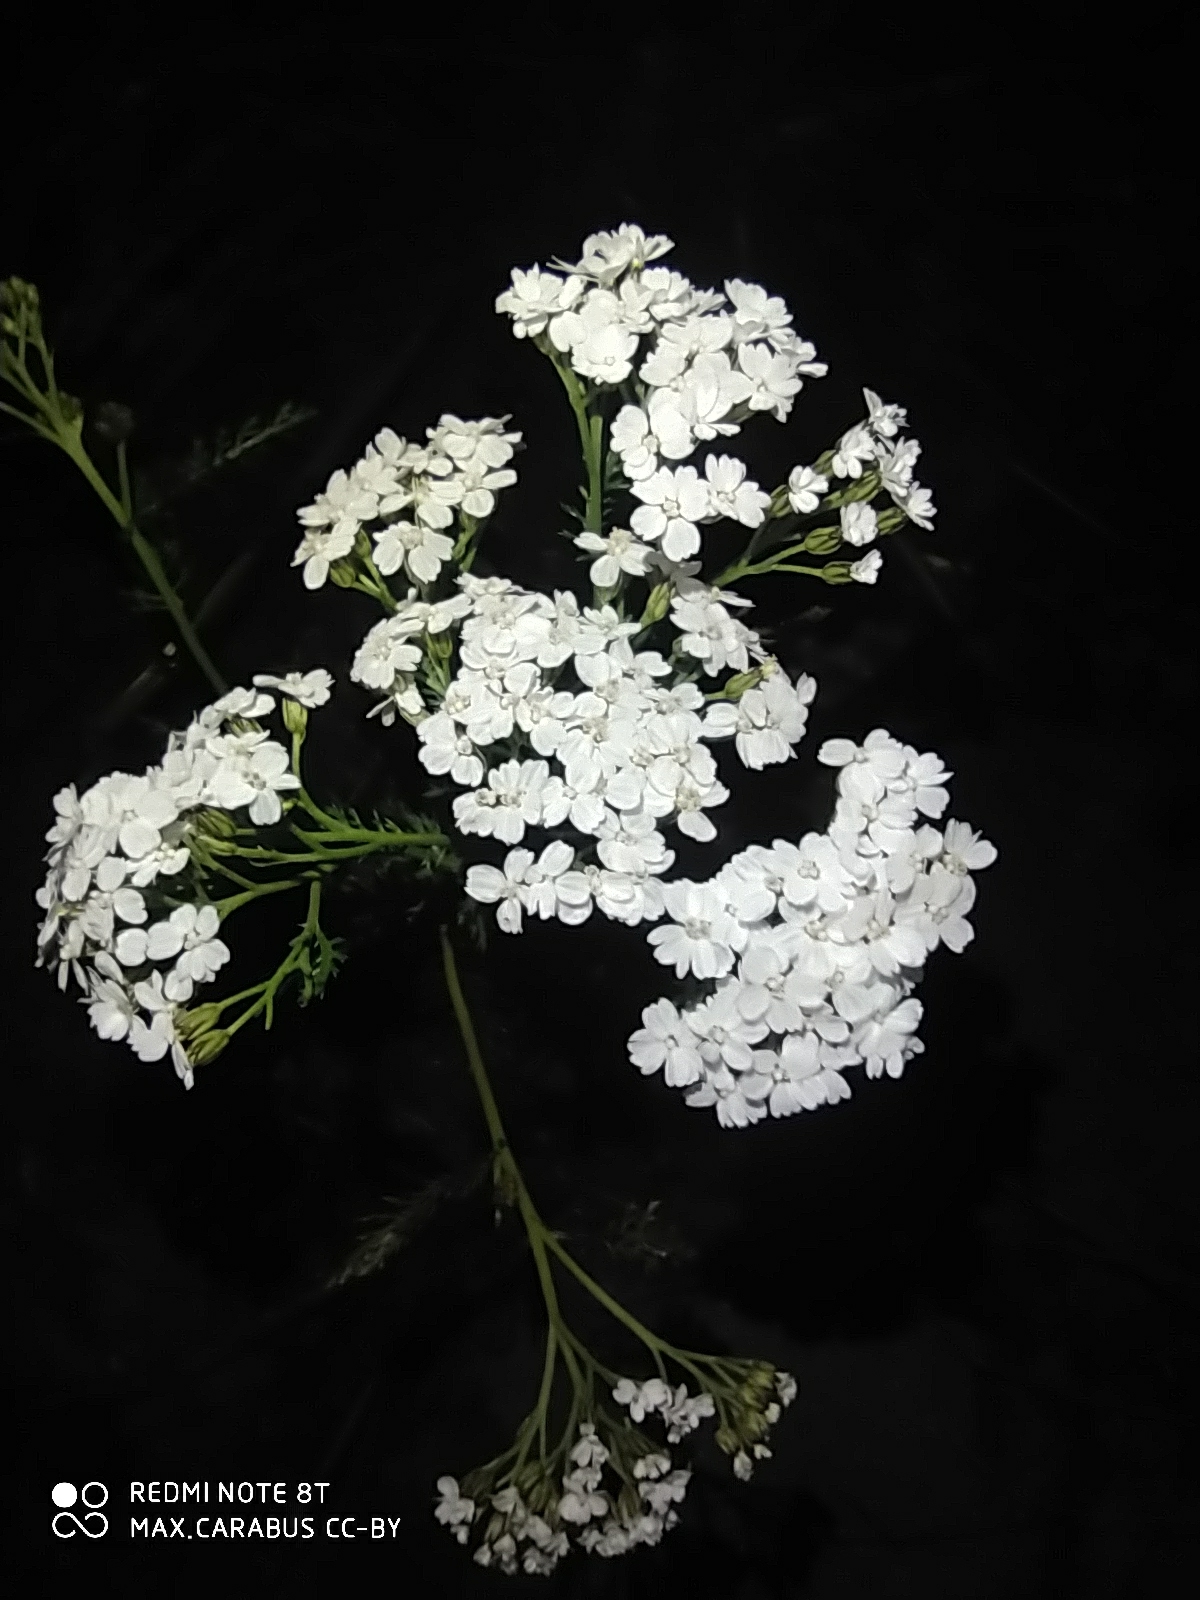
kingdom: Plantae
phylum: Tracheophyta
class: Magnoliopsida
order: Asterales
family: Asteraceae
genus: Achillea
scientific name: Achillea millefolium
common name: Yarrow
